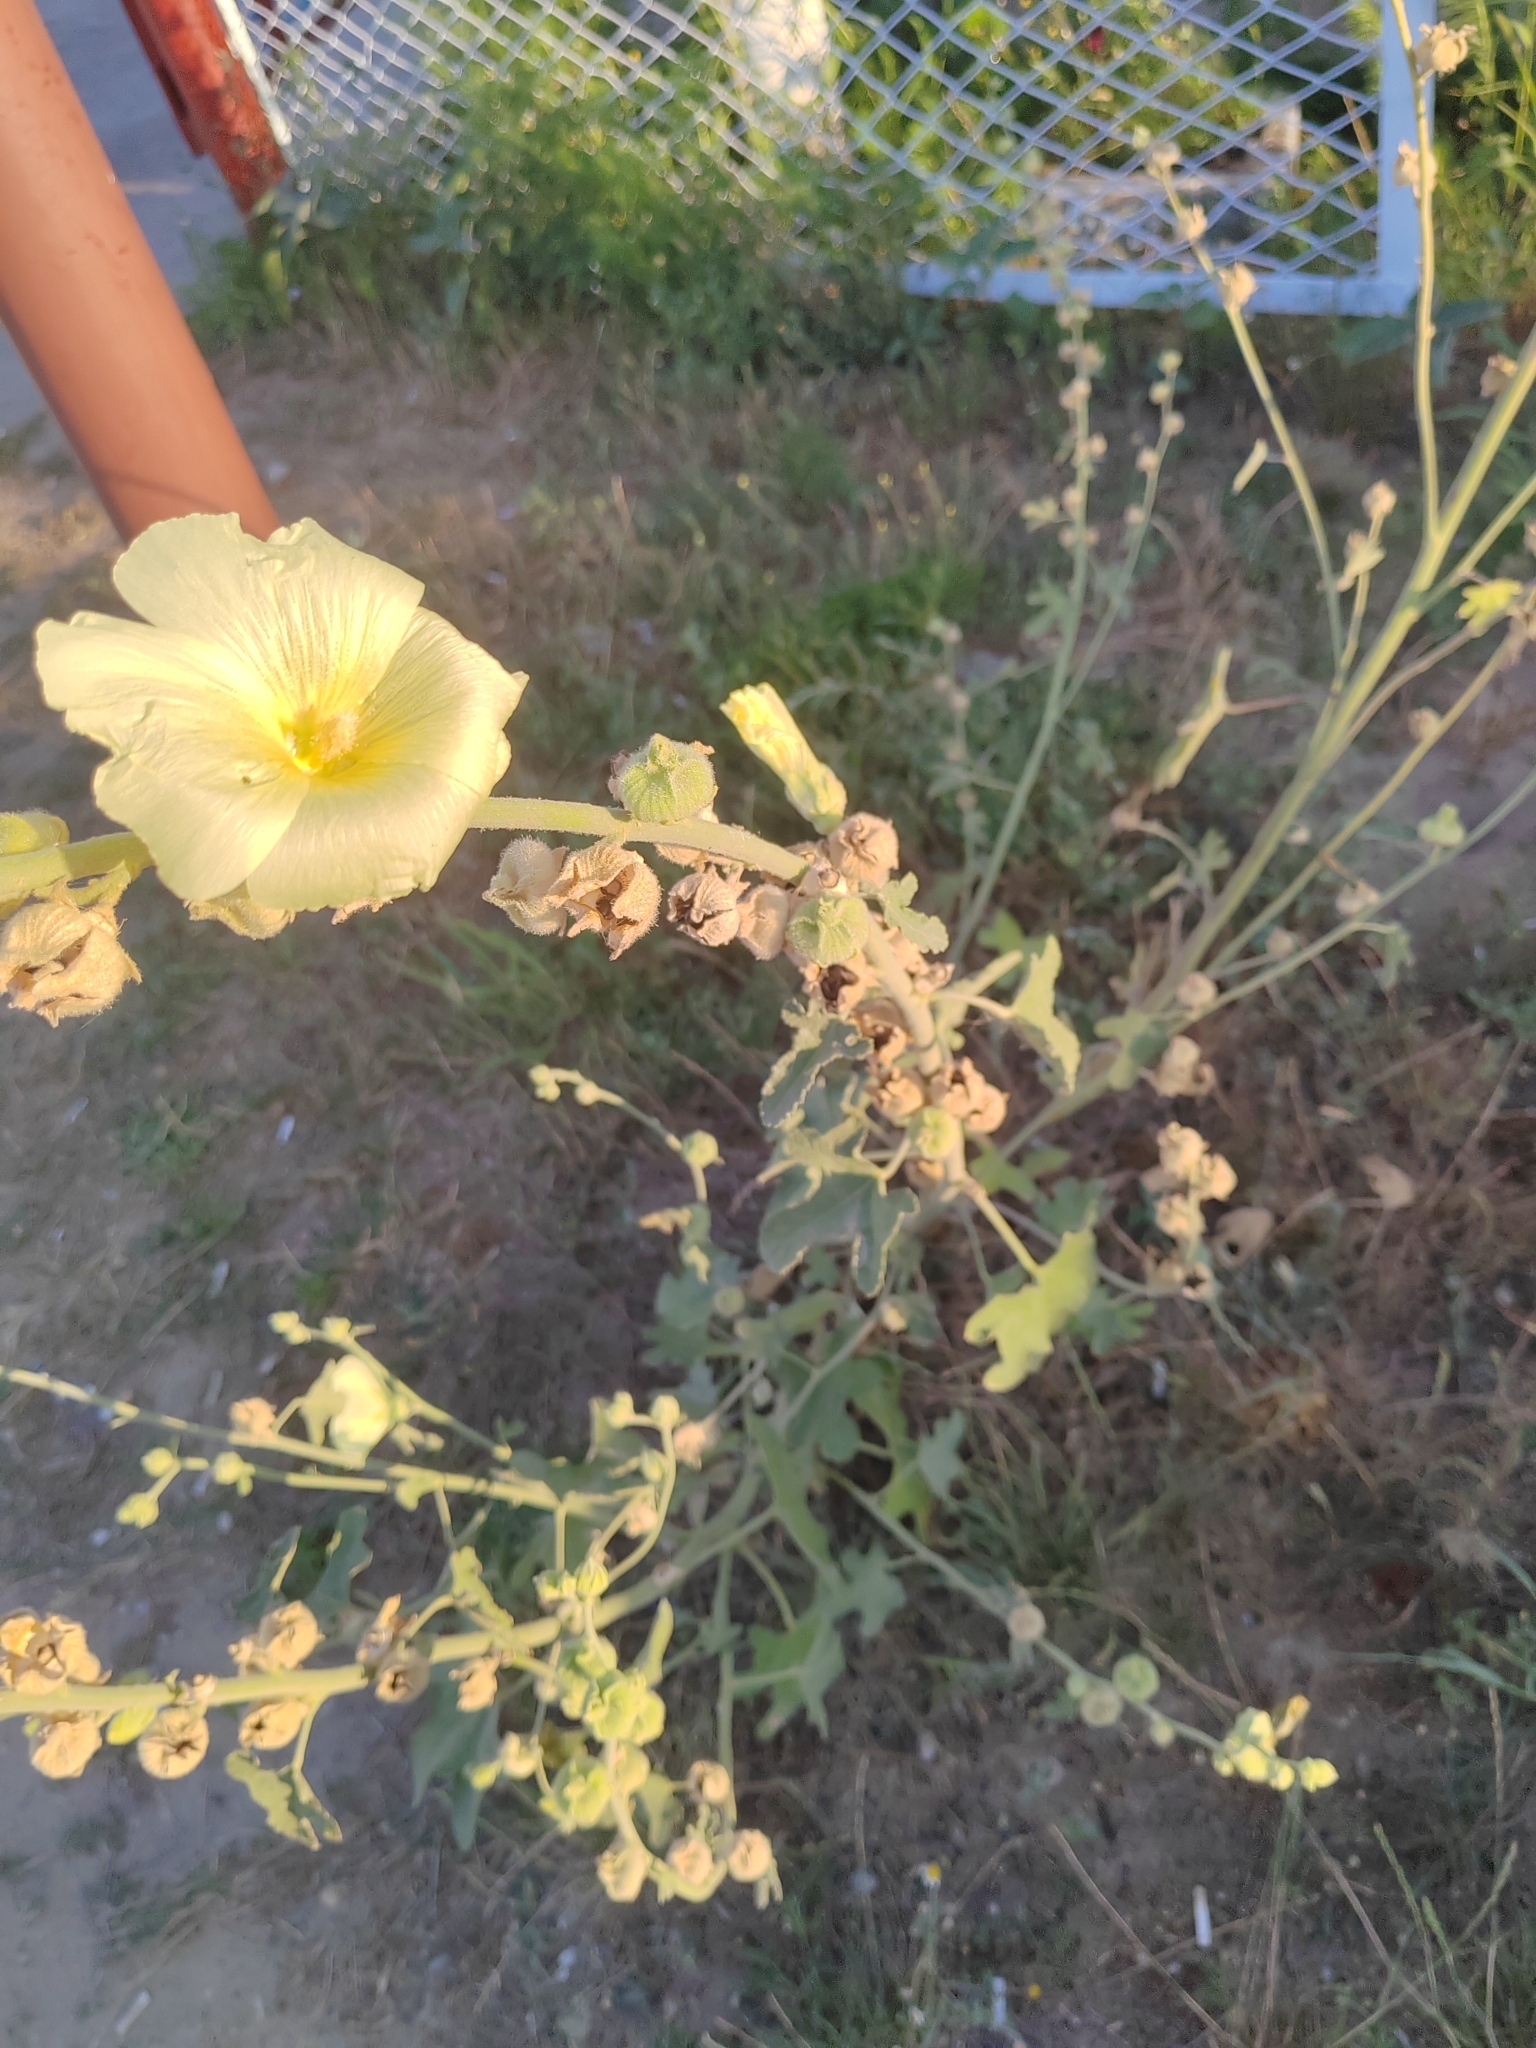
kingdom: Plantae
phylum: Tracheophyta
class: Magnoliopsida
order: Malvales
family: Malvaceae
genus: Alcea
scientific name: Alcea rugosa
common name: Russian hollyhock
